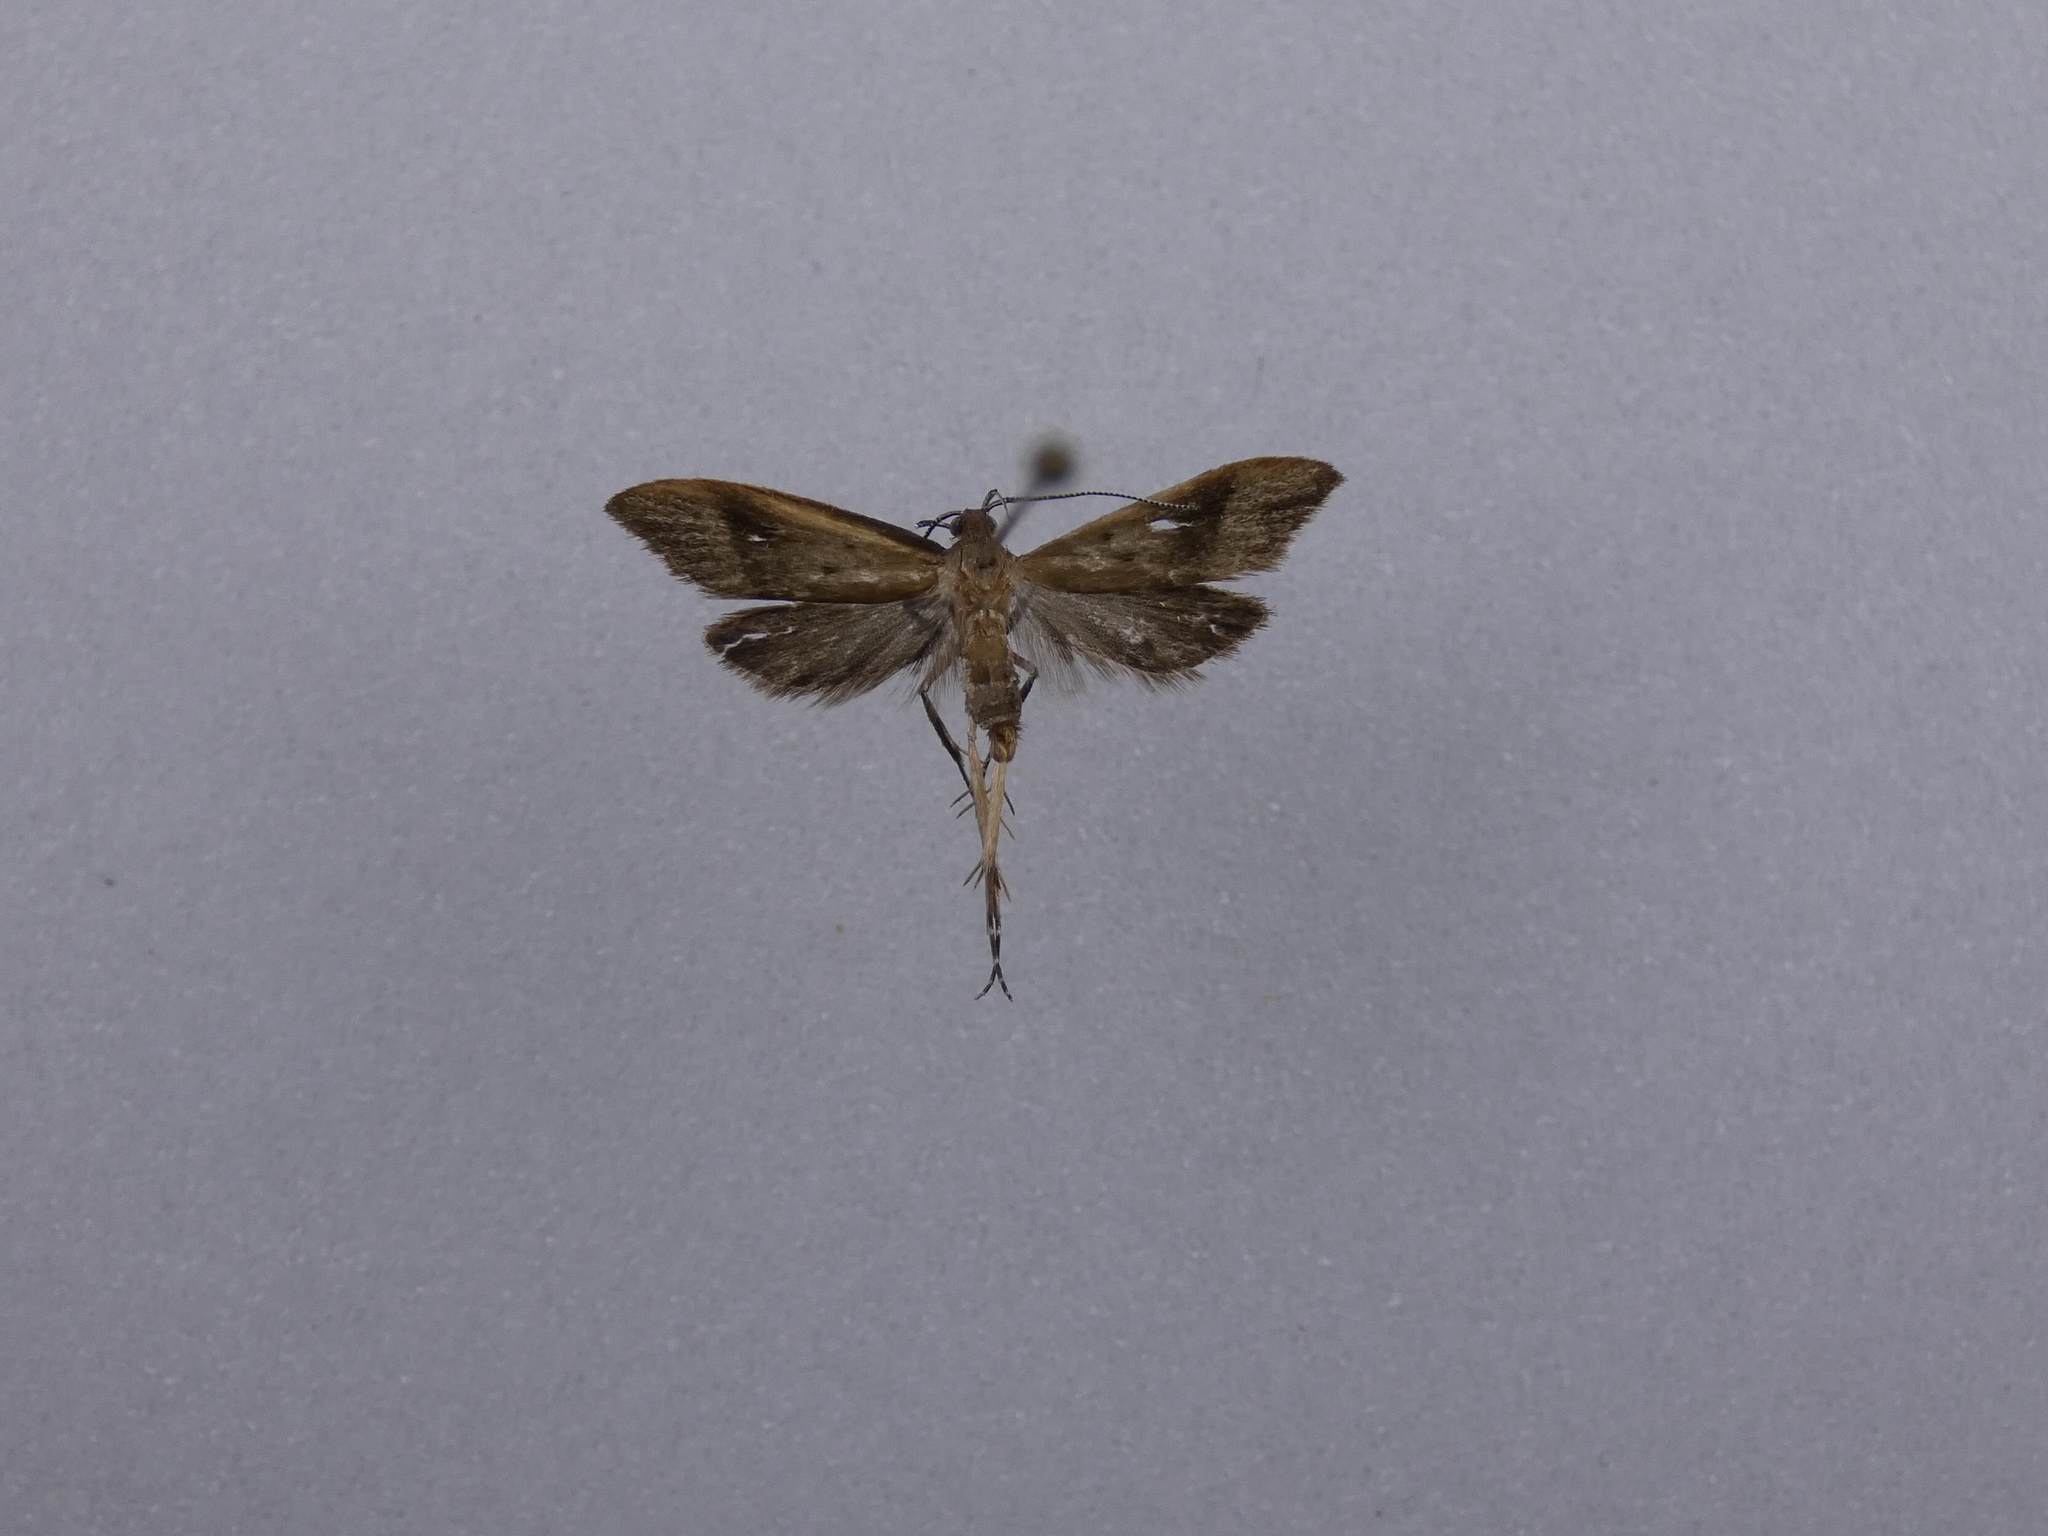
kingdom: Animalia
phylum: Arthropoda
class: Insecta
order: Lepidoptera
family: Oecophoridae
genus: Gymnobathra
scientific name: Gymnobathra hyetodes
